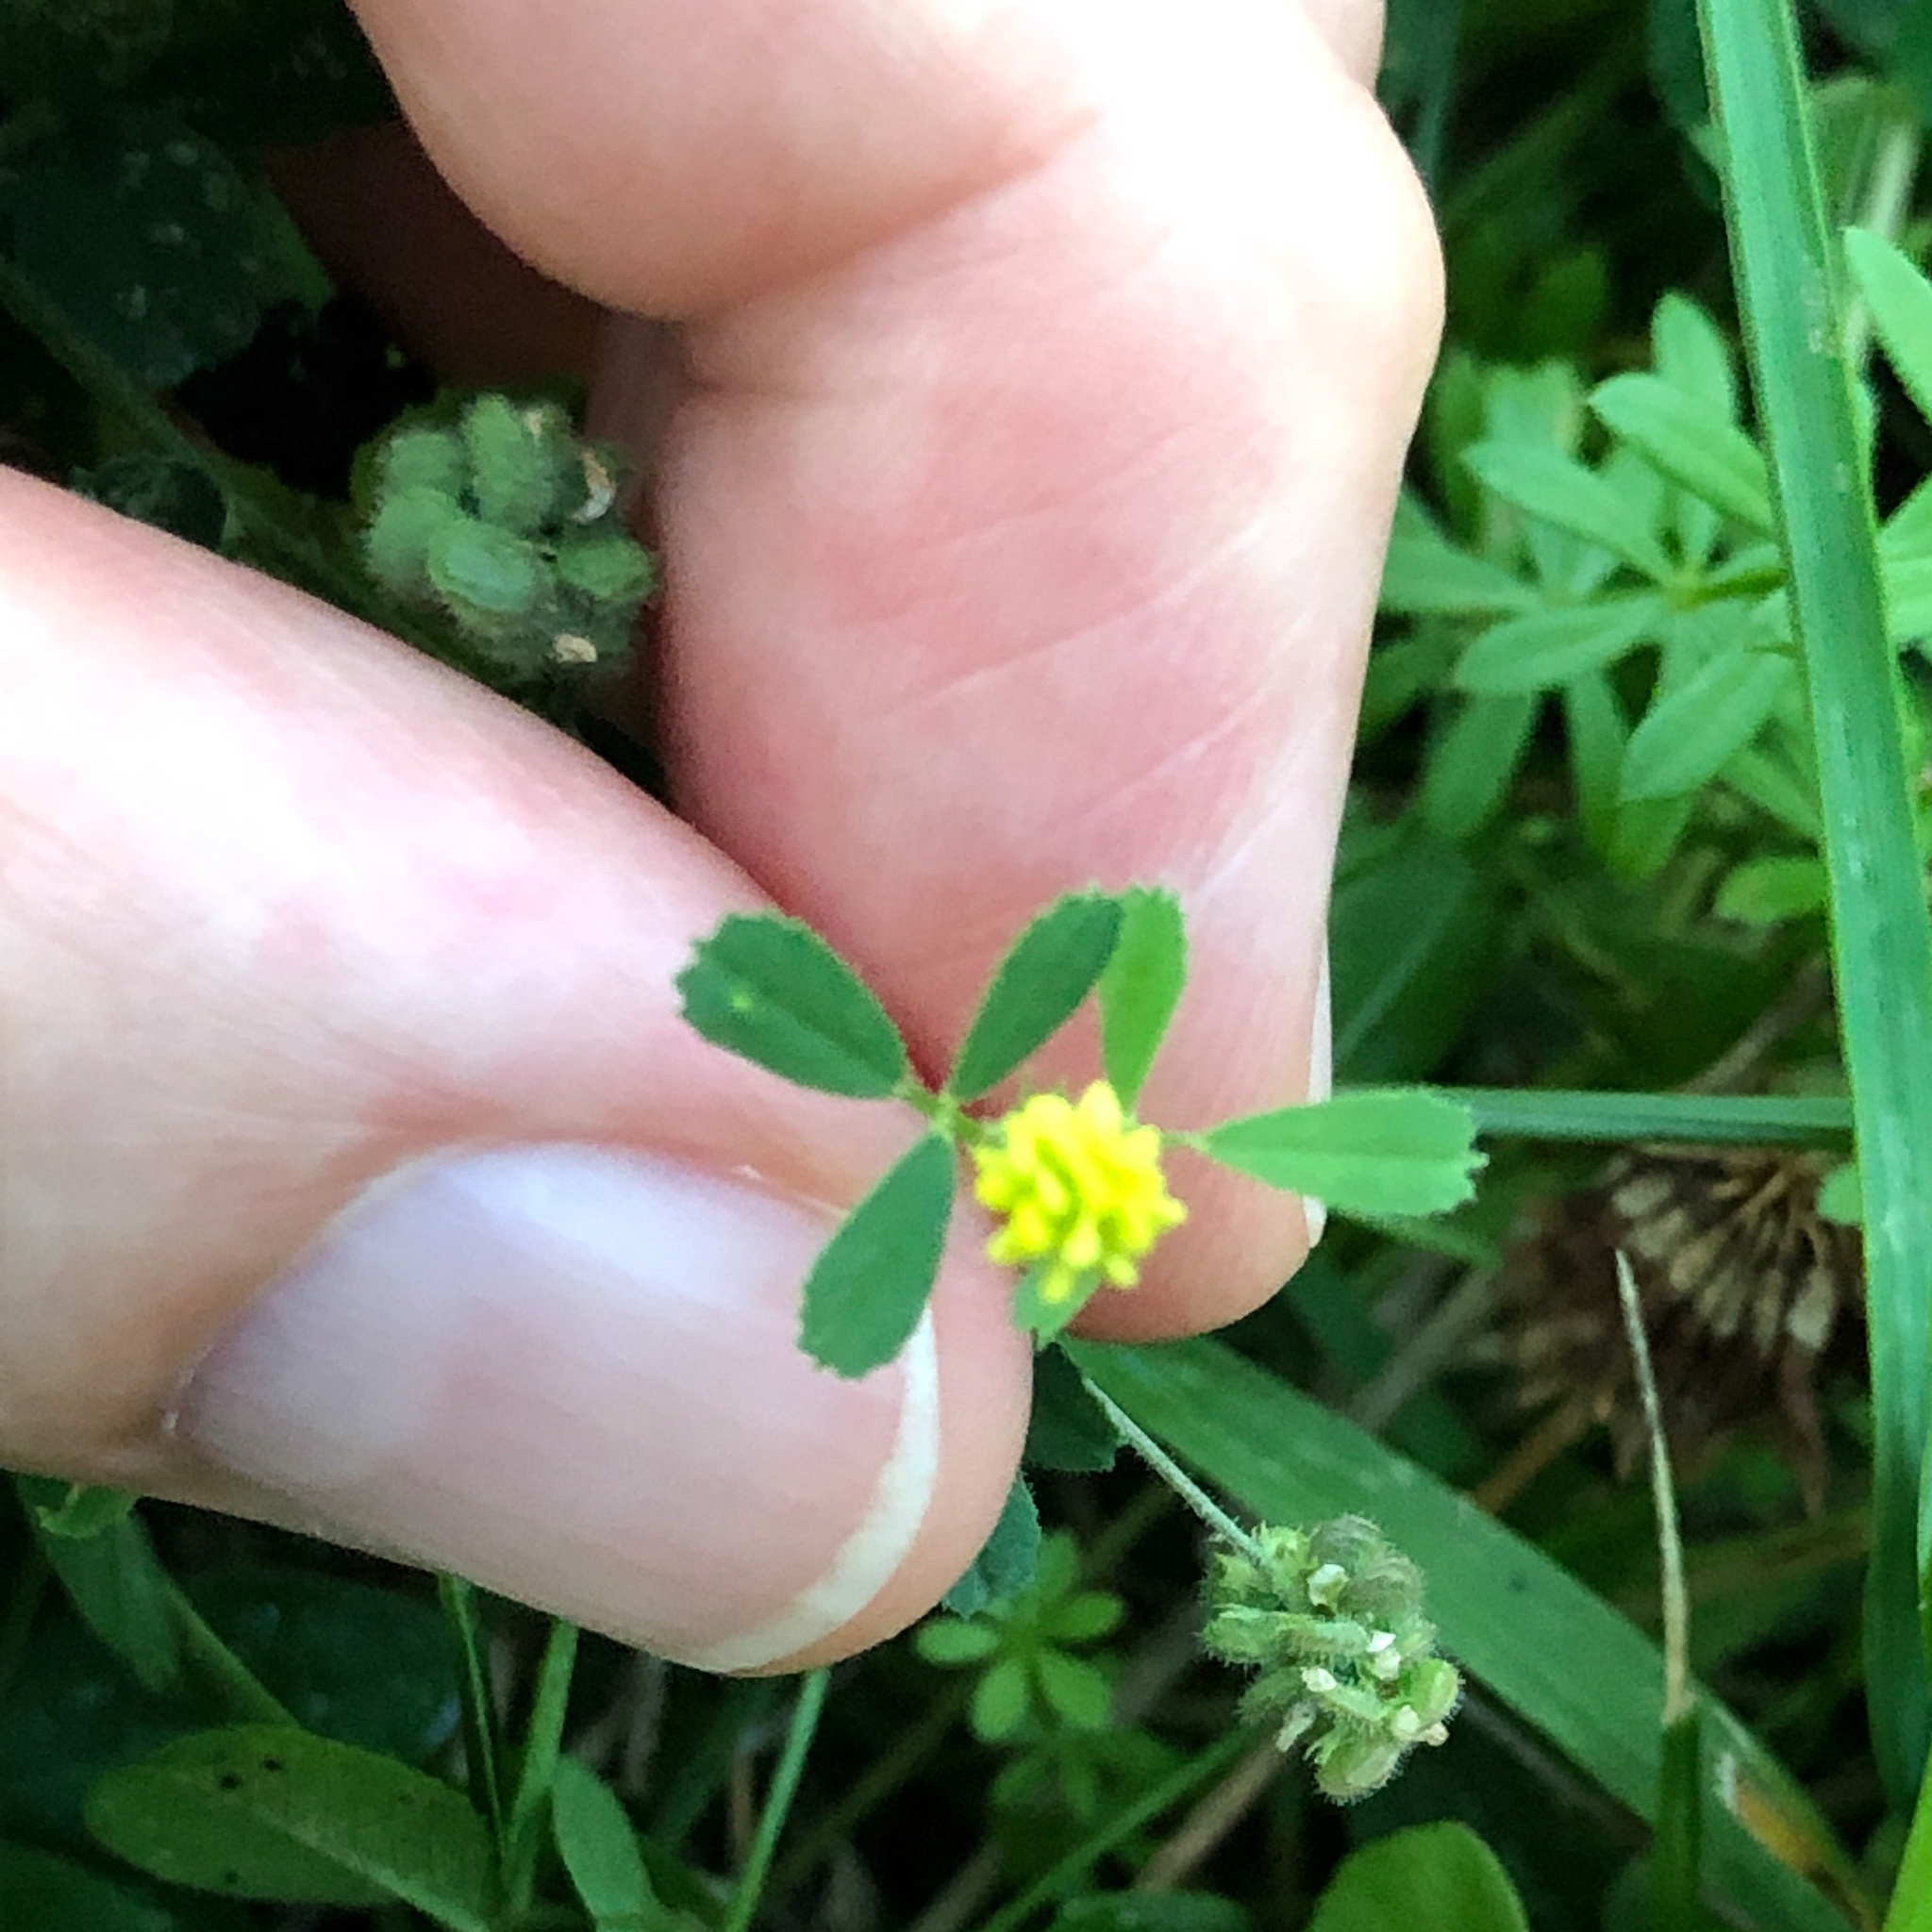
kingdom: Plantae
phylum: Tracheophyta
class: Magnoliopsida
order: Fabales
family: Fabaceae
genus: Medicago
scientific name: Medicago lupulina
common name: Black medick
